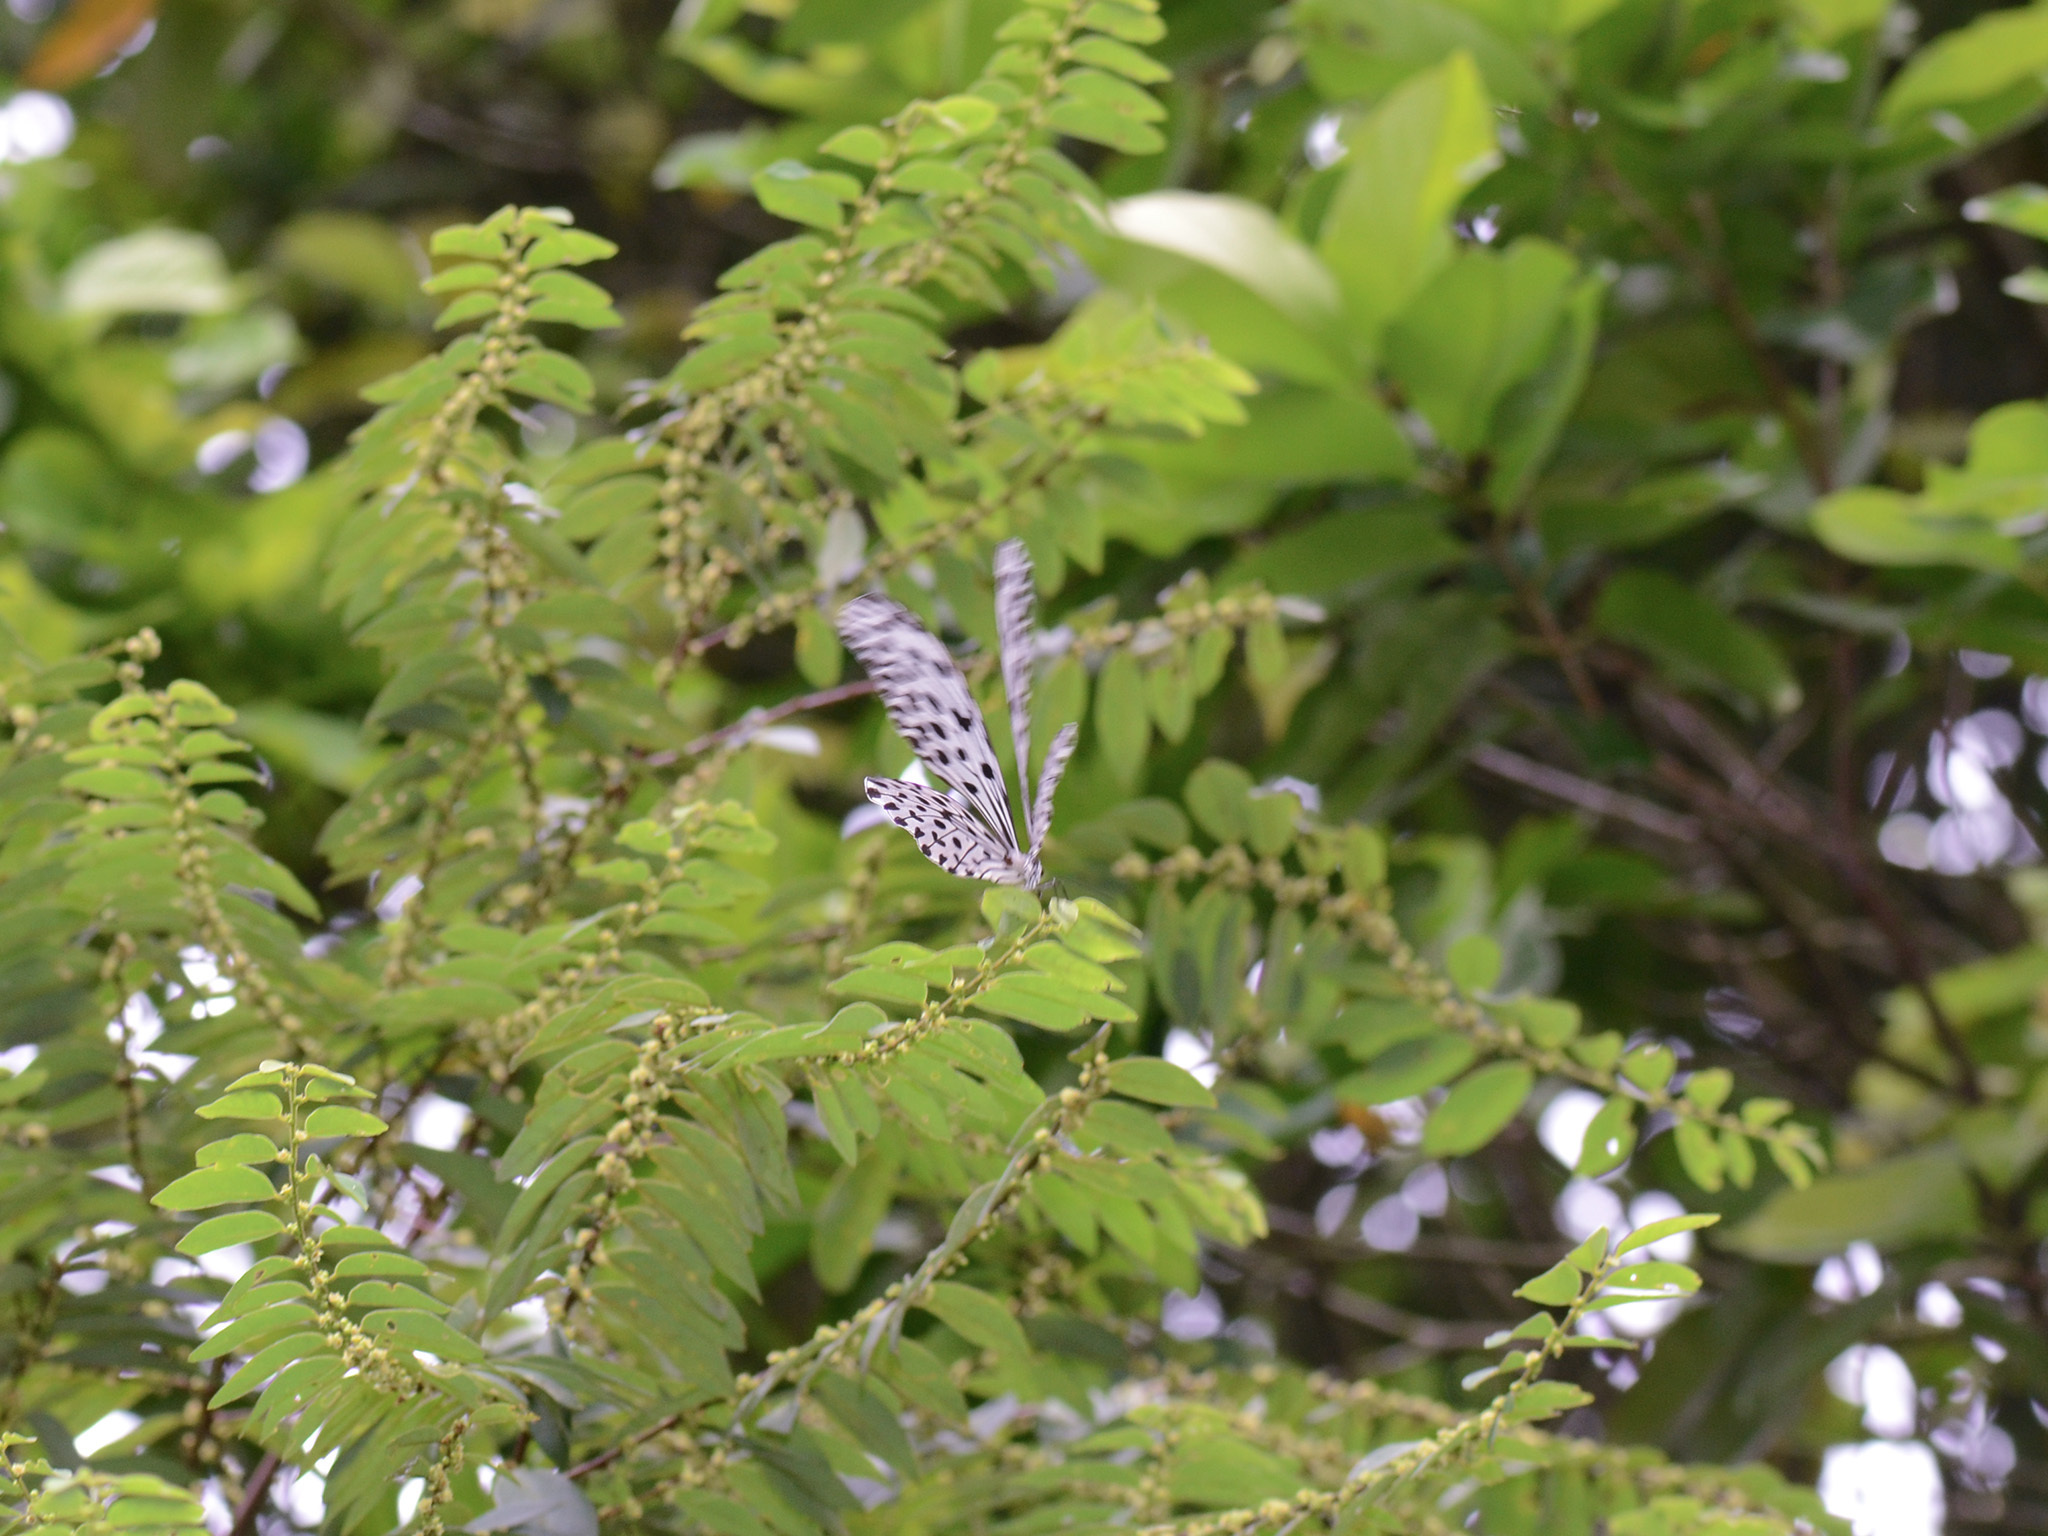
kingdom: Animalia
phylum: Arthropoda
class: Insecta
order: Lepidoptera
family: Nymphalidae
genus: Idea
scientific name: Idea stolli
